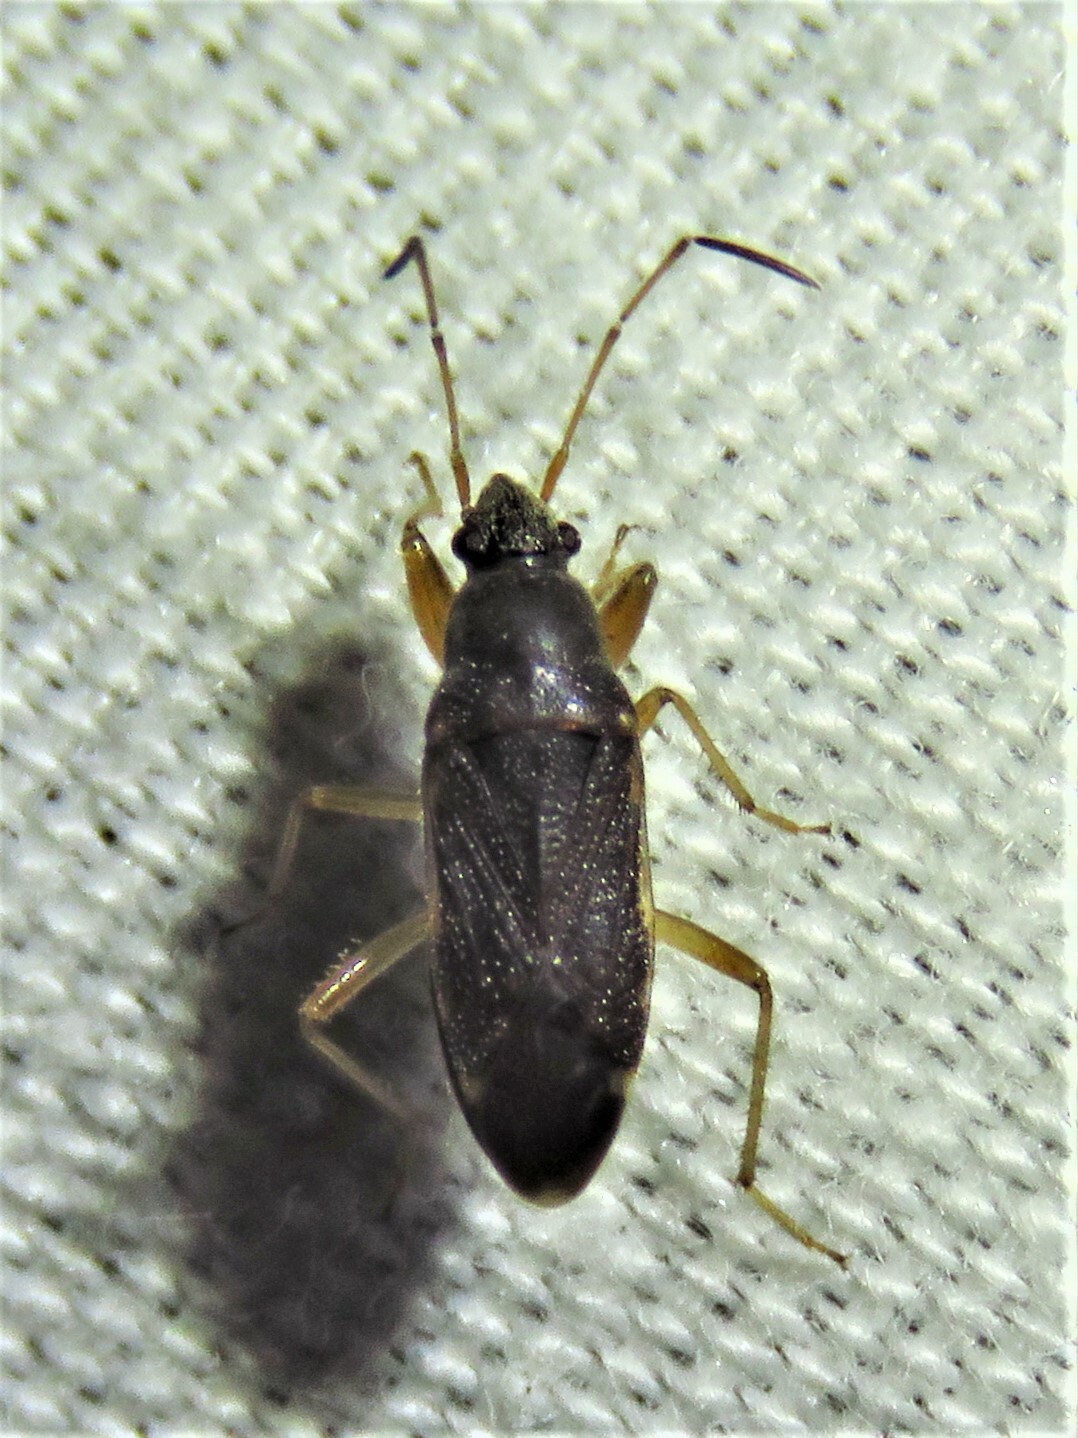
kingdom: Animalia
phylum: Arthropoda
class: Insecta
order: Hemiptera
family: Rhyparochromidae
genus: Zeridoneus
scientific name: Zeridoneus knulli
